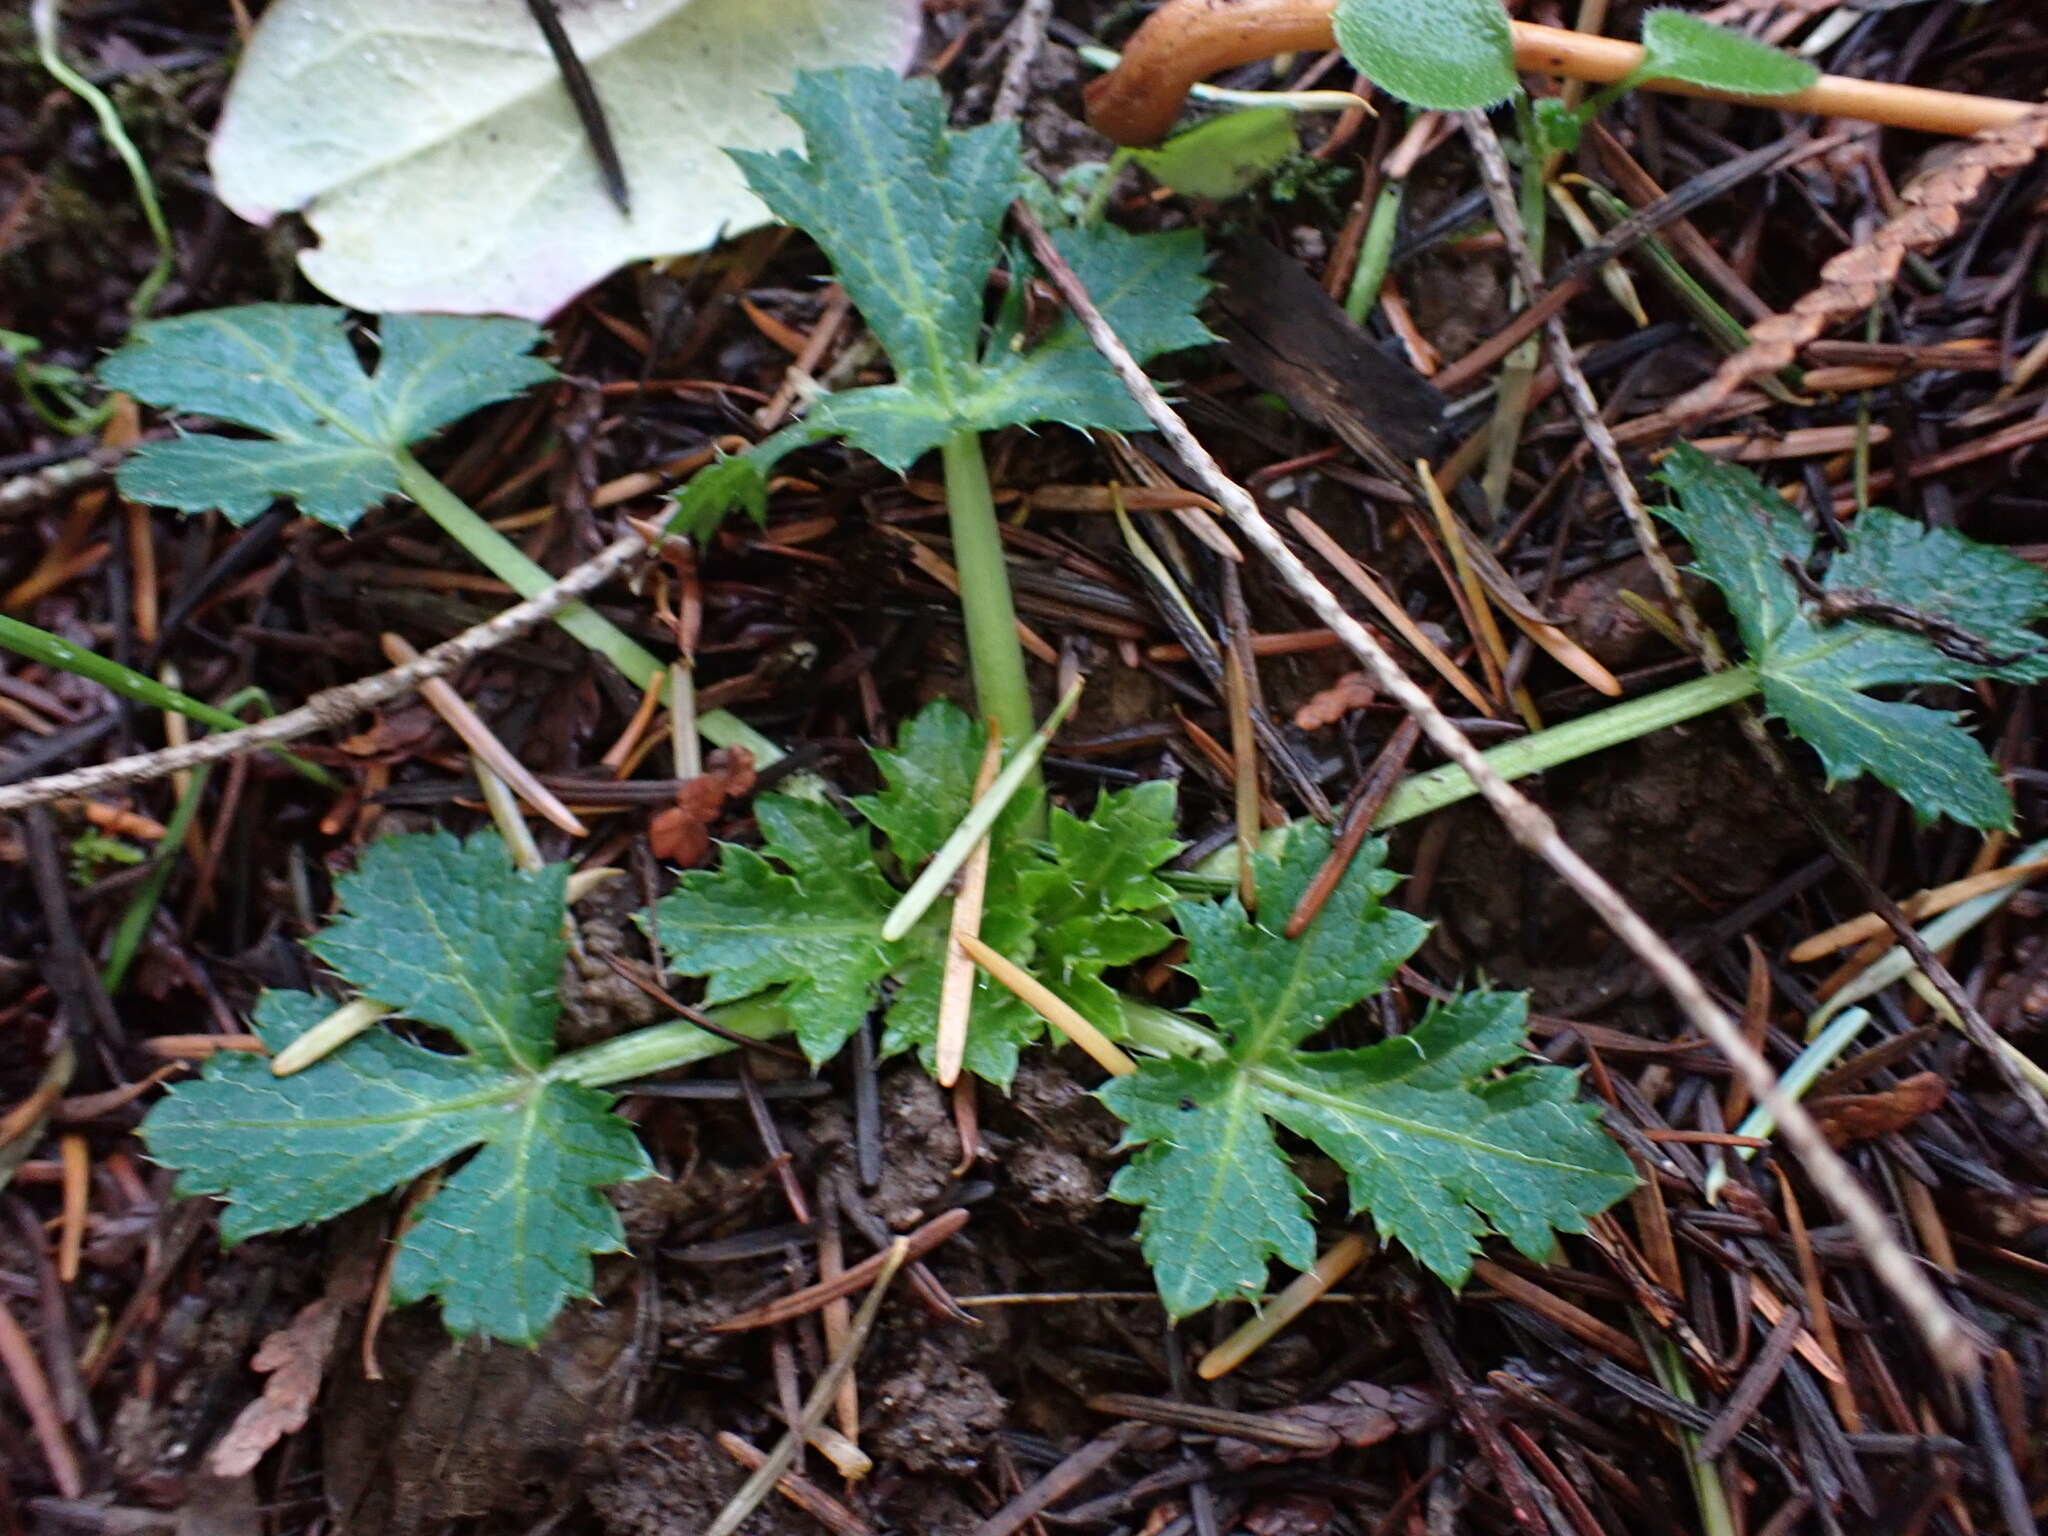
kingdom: Plantae
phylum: Tracheophyta
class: Magnoliopsida
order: Apiales
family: Apiaceae
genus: Sanicula
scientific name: Sanicula crassicaulis
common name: Western snakeroot
